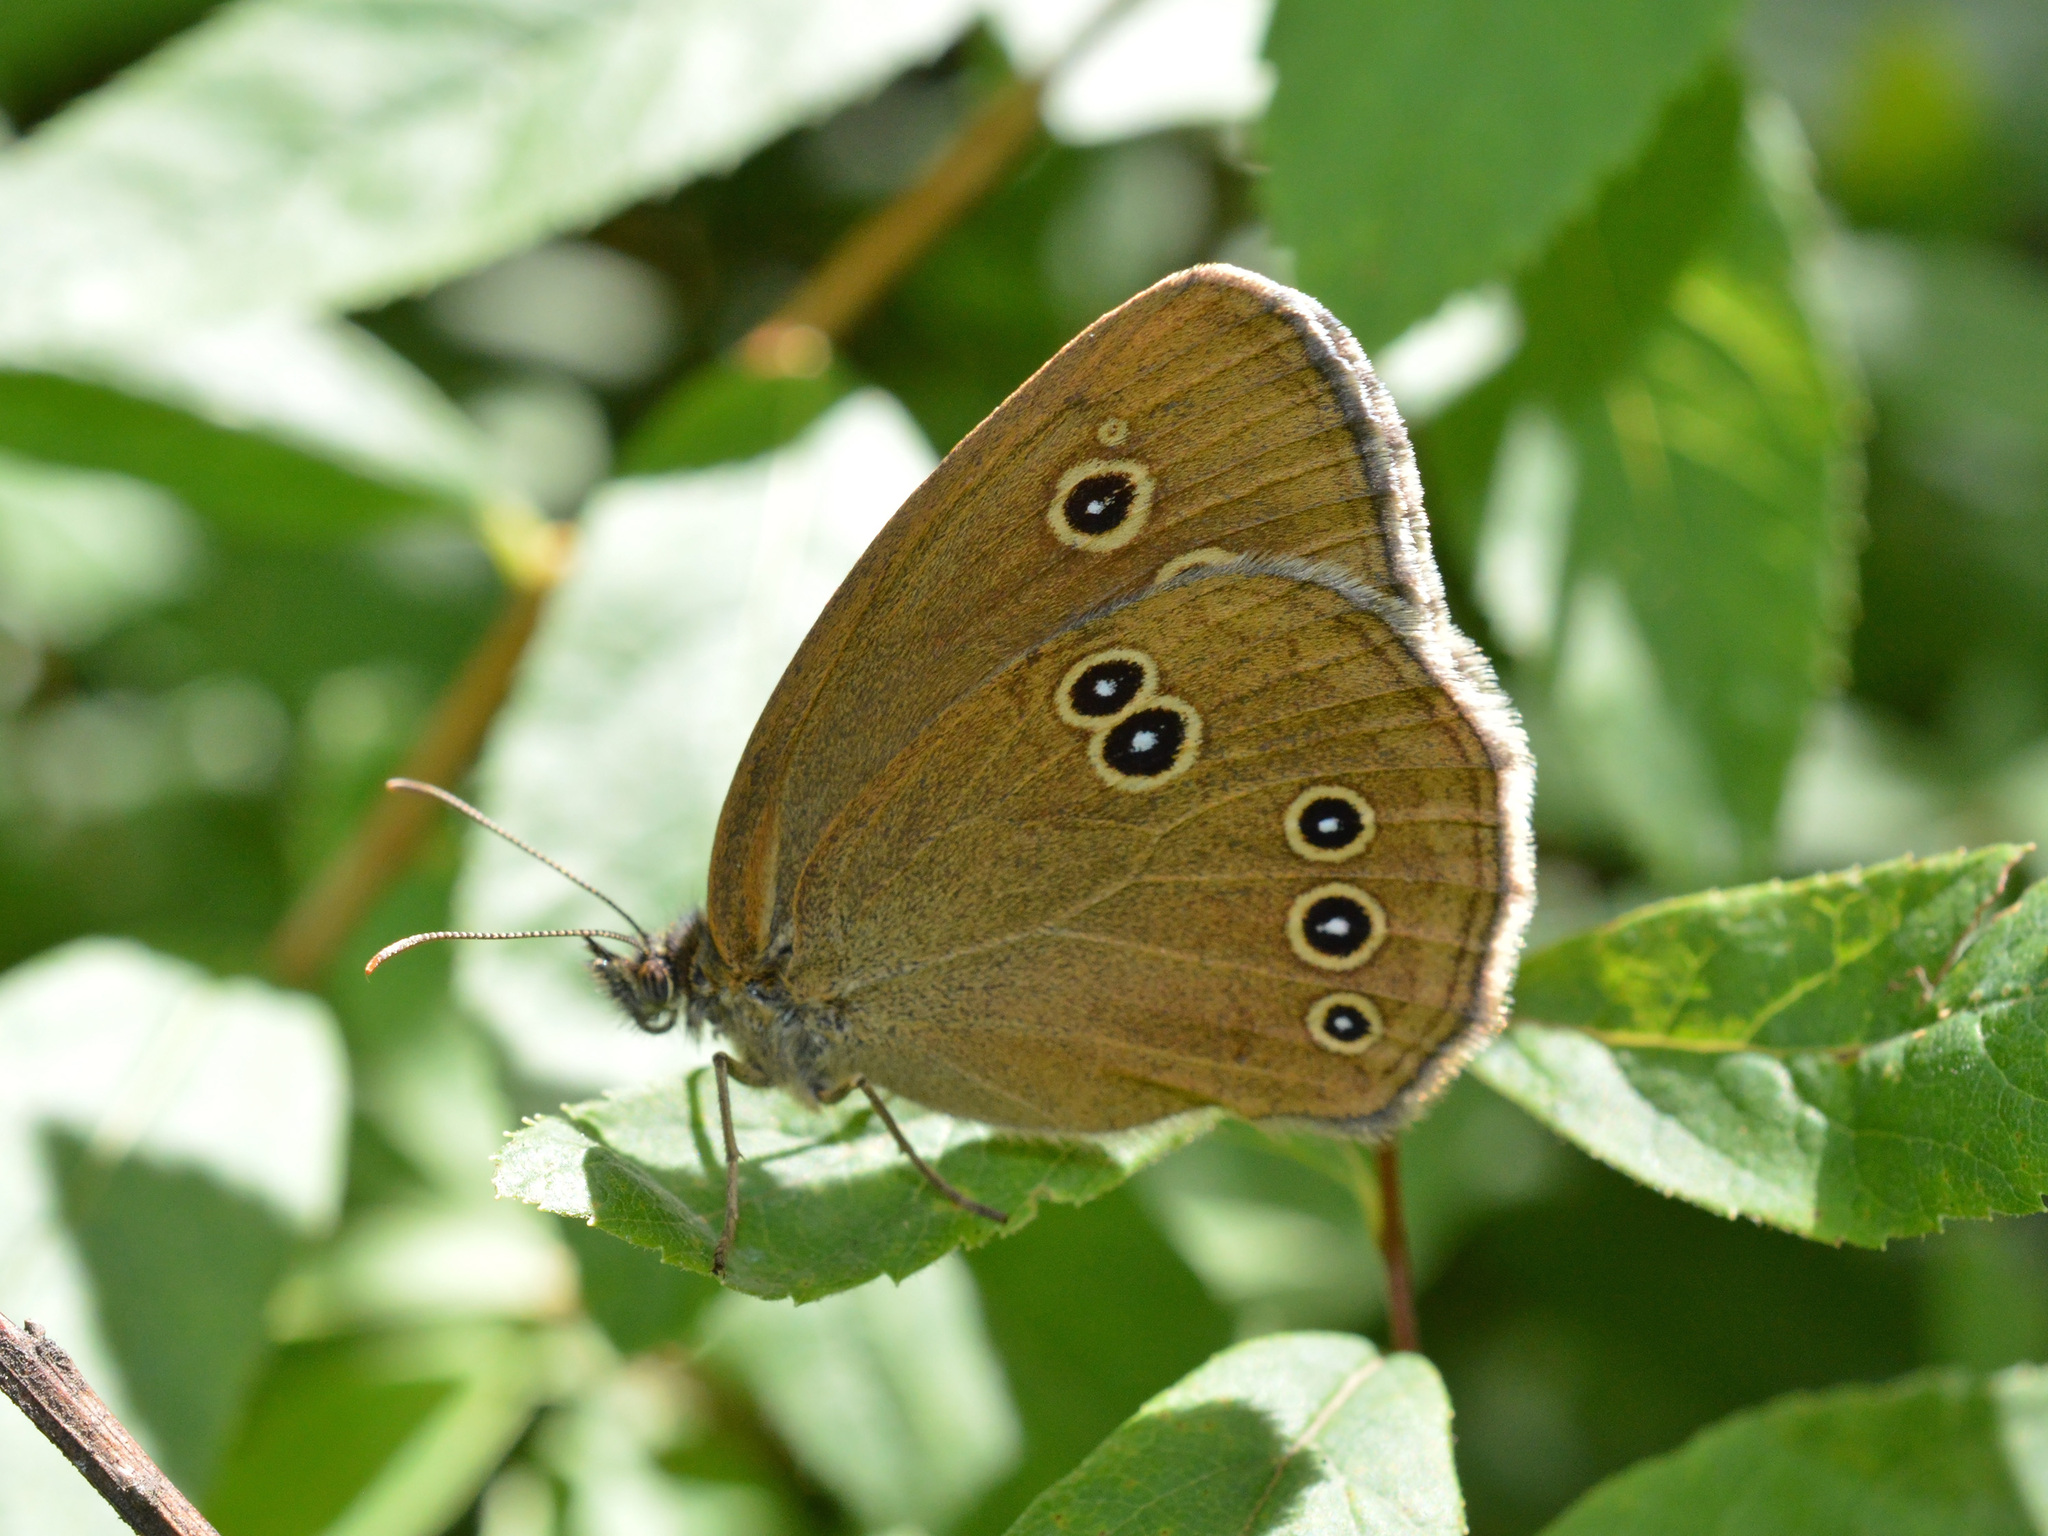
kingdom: Animalia
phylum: Arthropoda
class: Insecta
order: Lepidoptera
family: Nymphalidae
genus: Aphantopus
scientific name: Aphantopus hyperantus
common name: Ringlet
